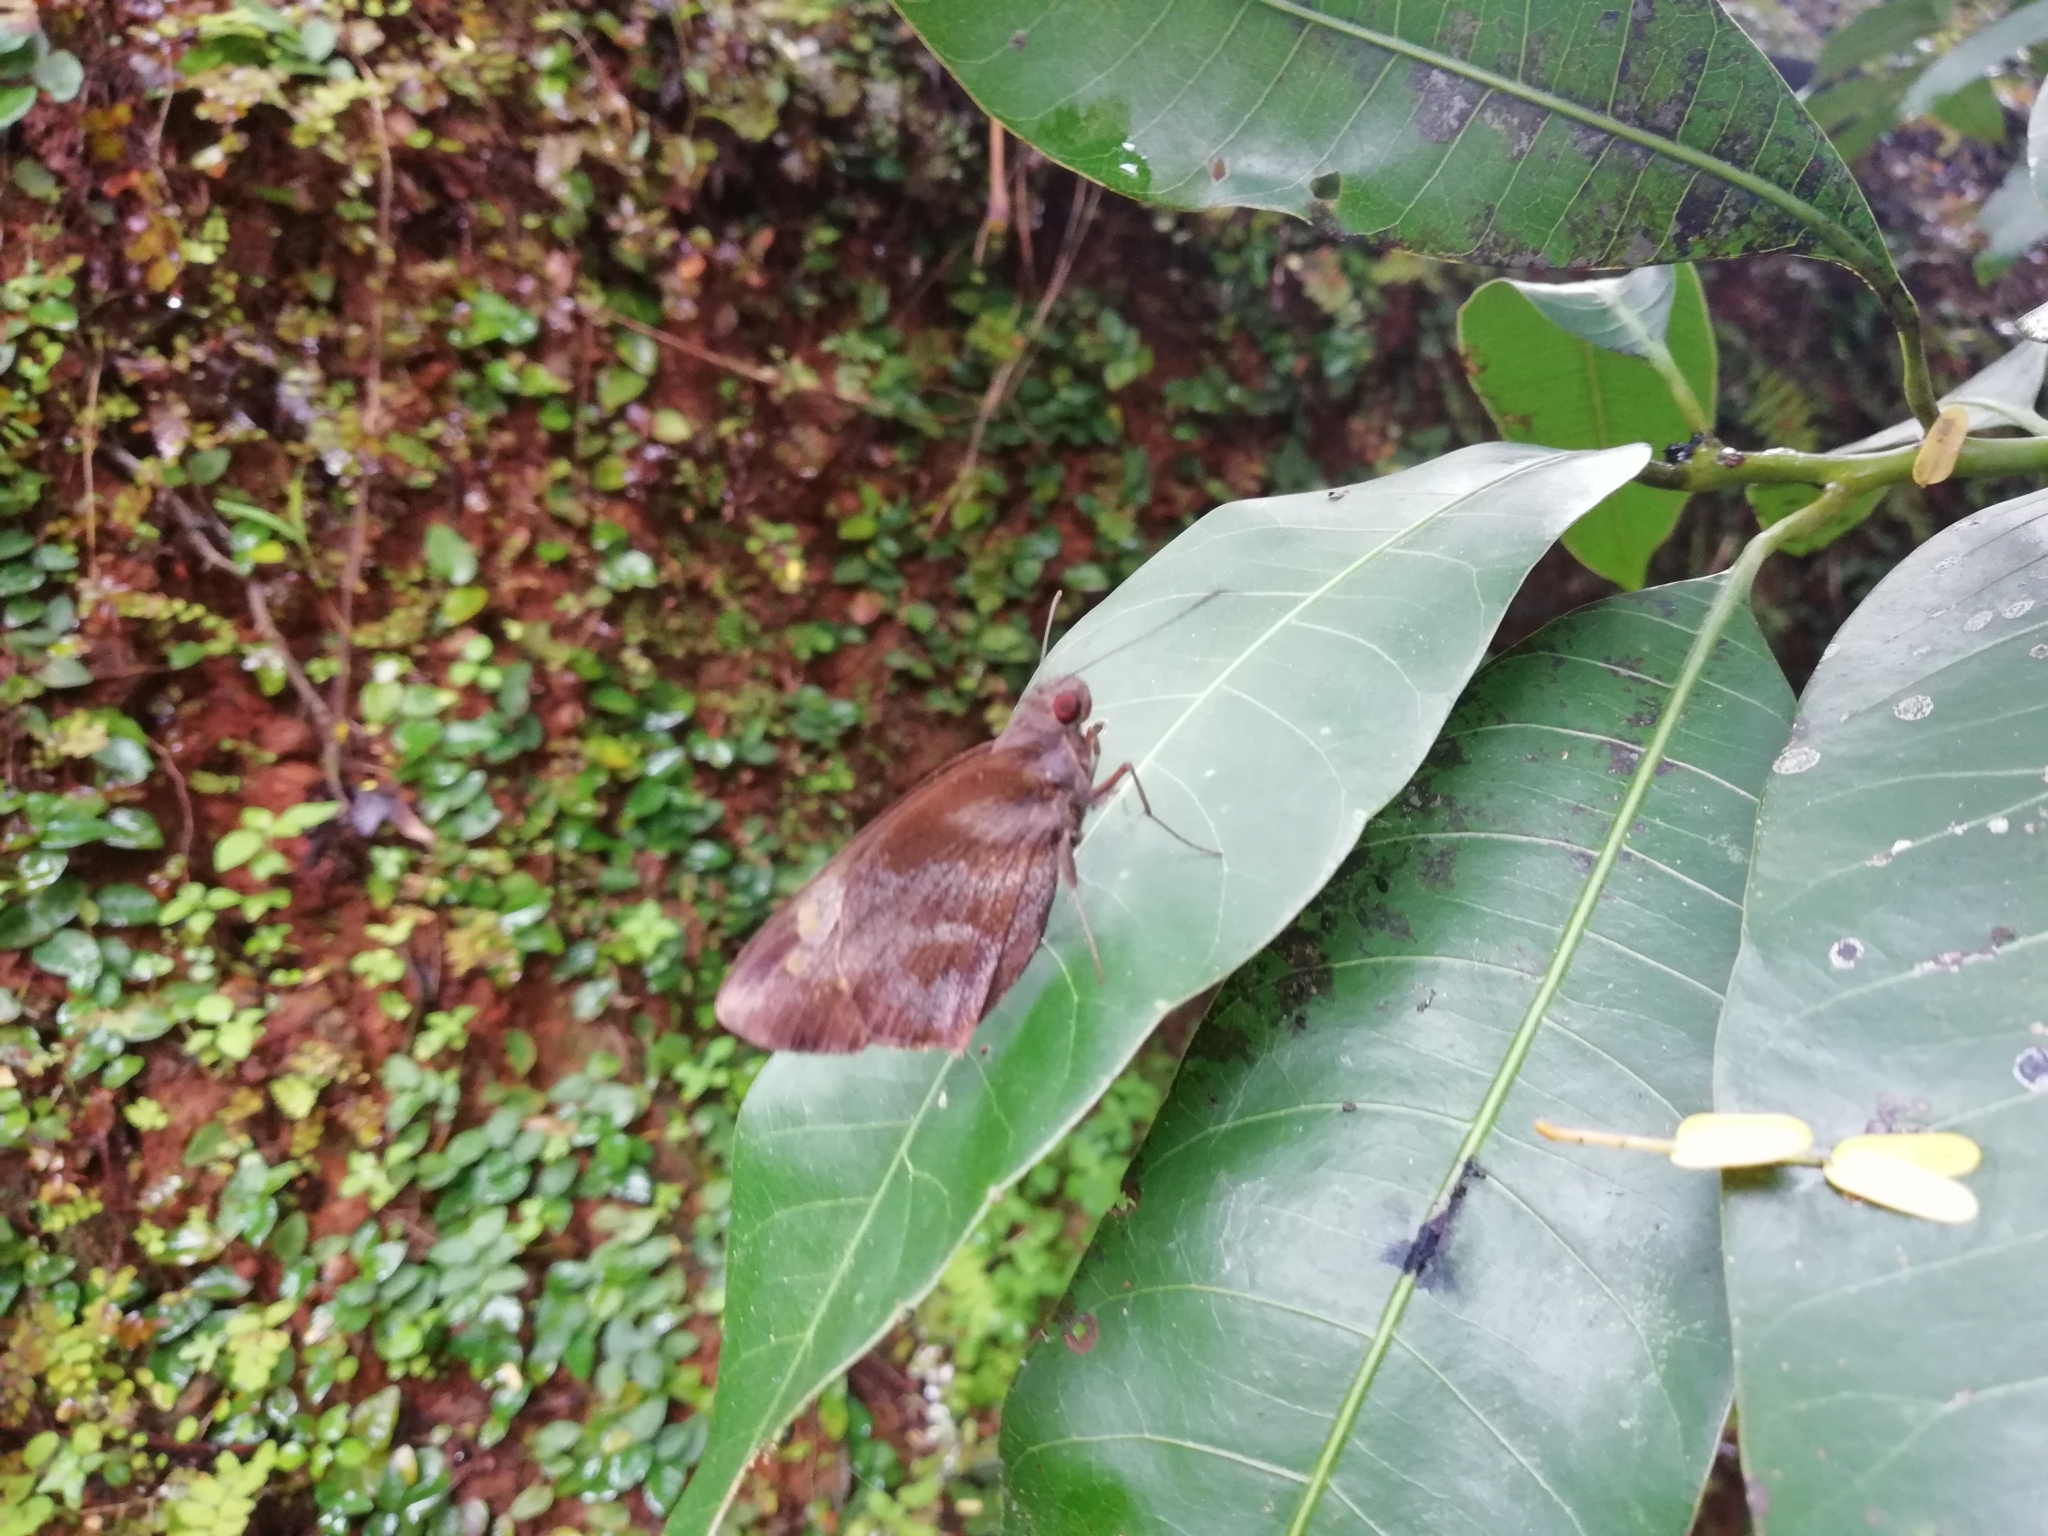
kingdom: Animalia
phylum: Arthropoda
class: Insecta
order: Lepidoptera
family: Hesperiidae
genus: Gangara
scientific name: Gangara thyrsis
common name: Giant redeye
